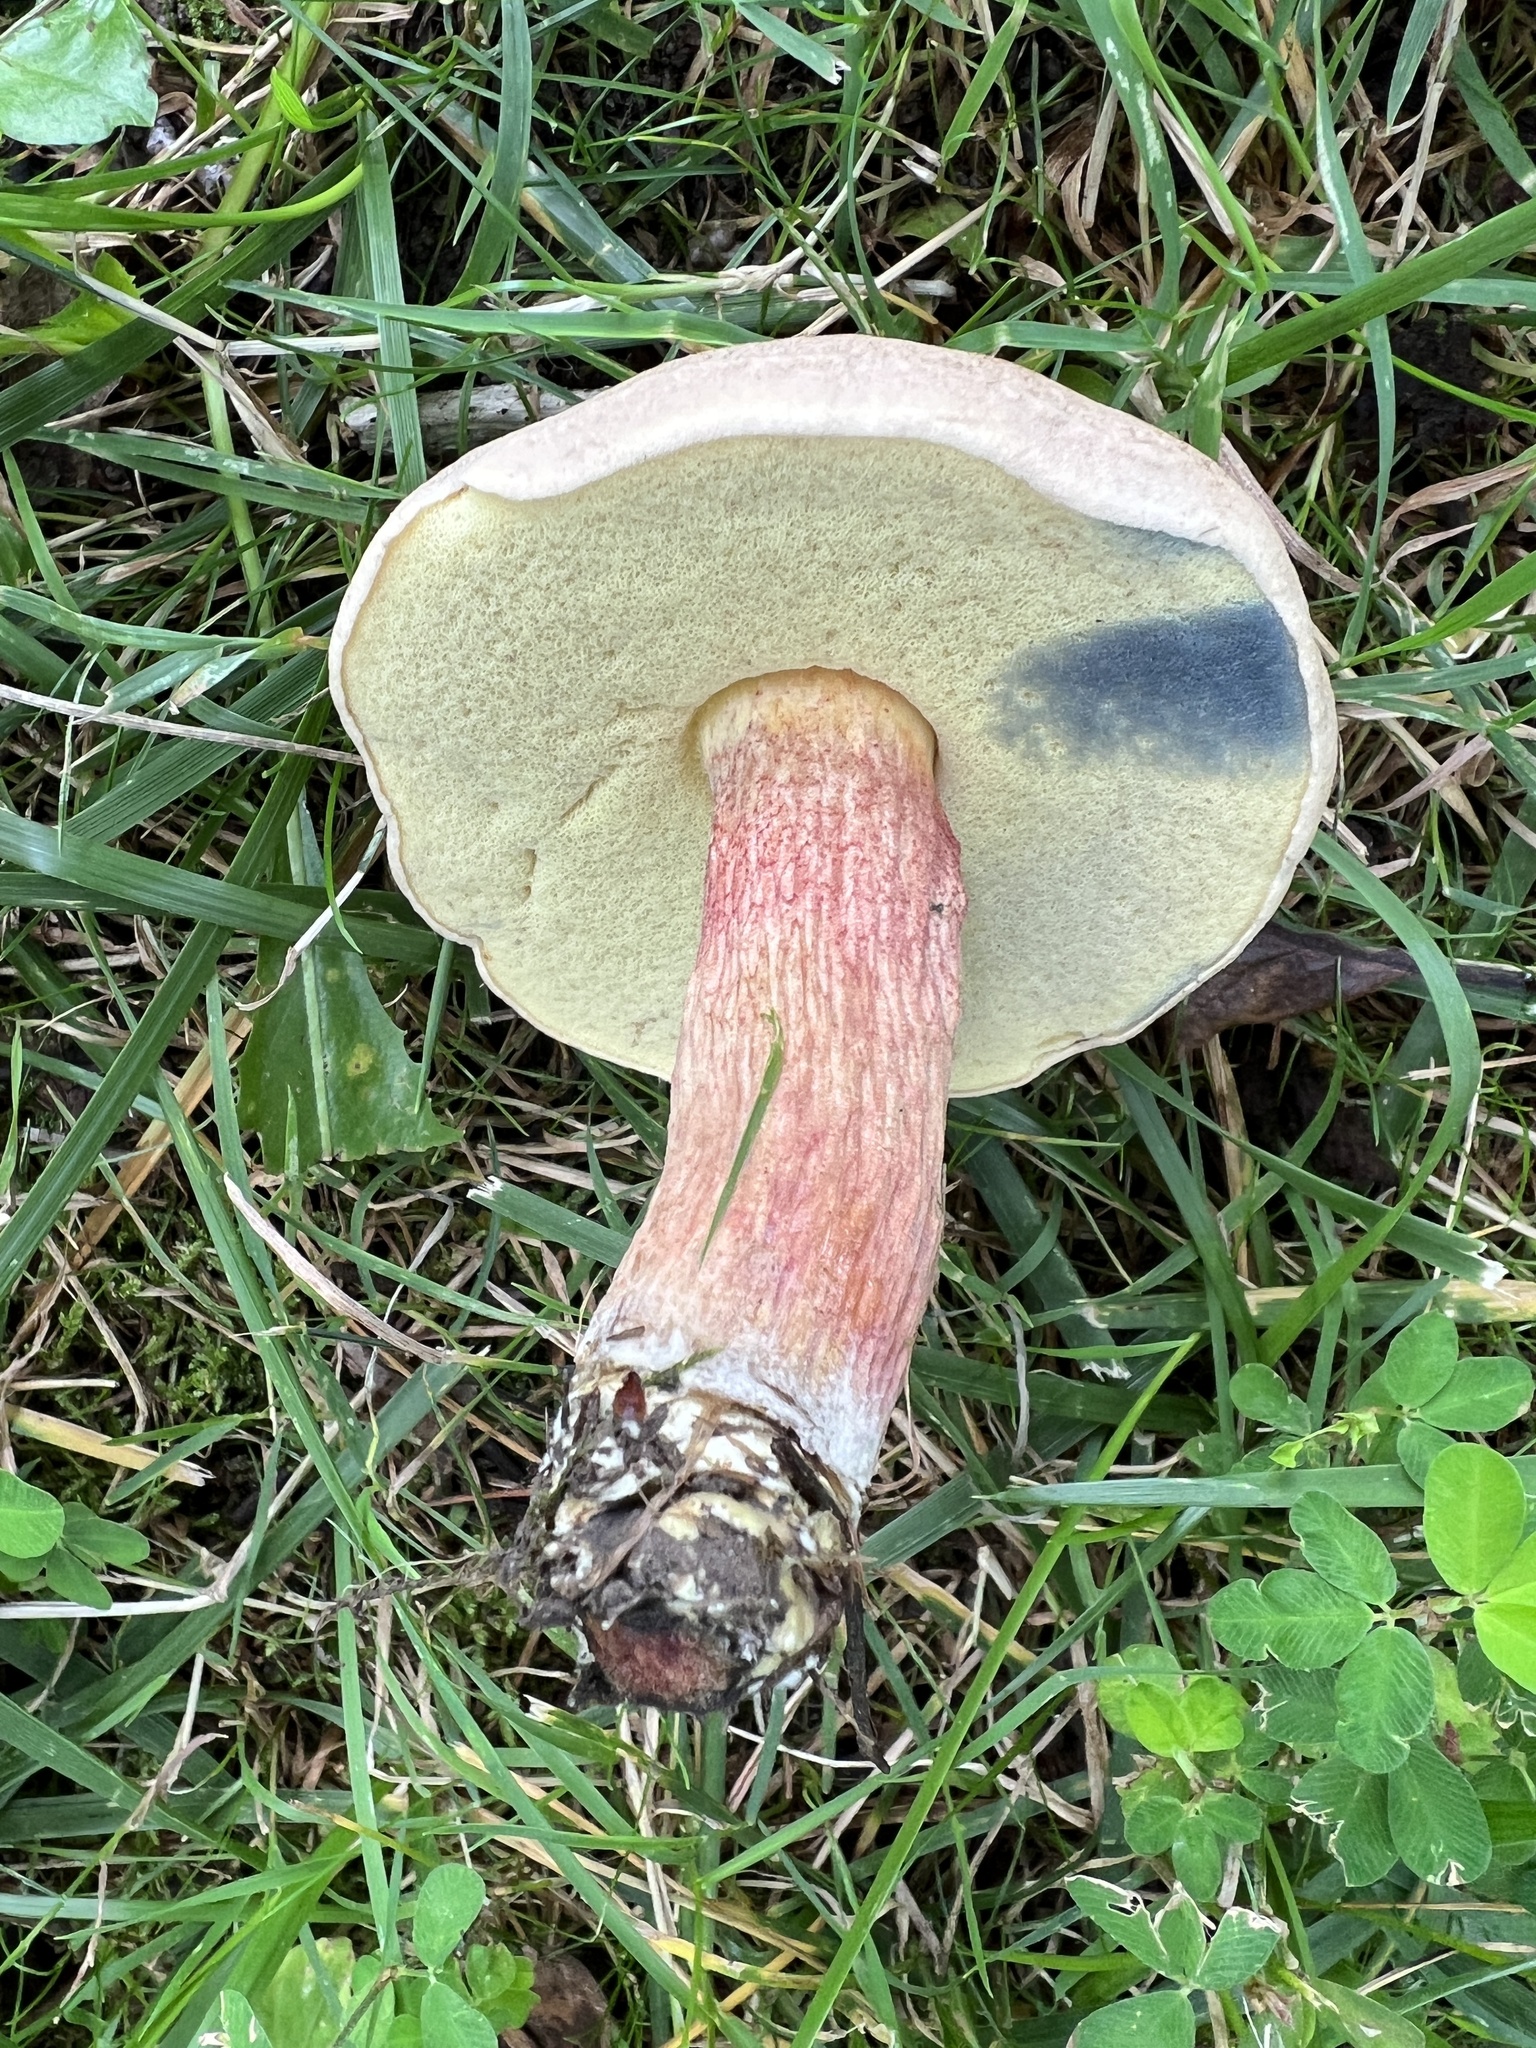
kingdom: Fungi
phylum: Basidiomycota
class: Agaricomycetes
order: Boletales
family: Boletaceae
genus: Caloboletus
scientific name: Caloboletus inedulis
